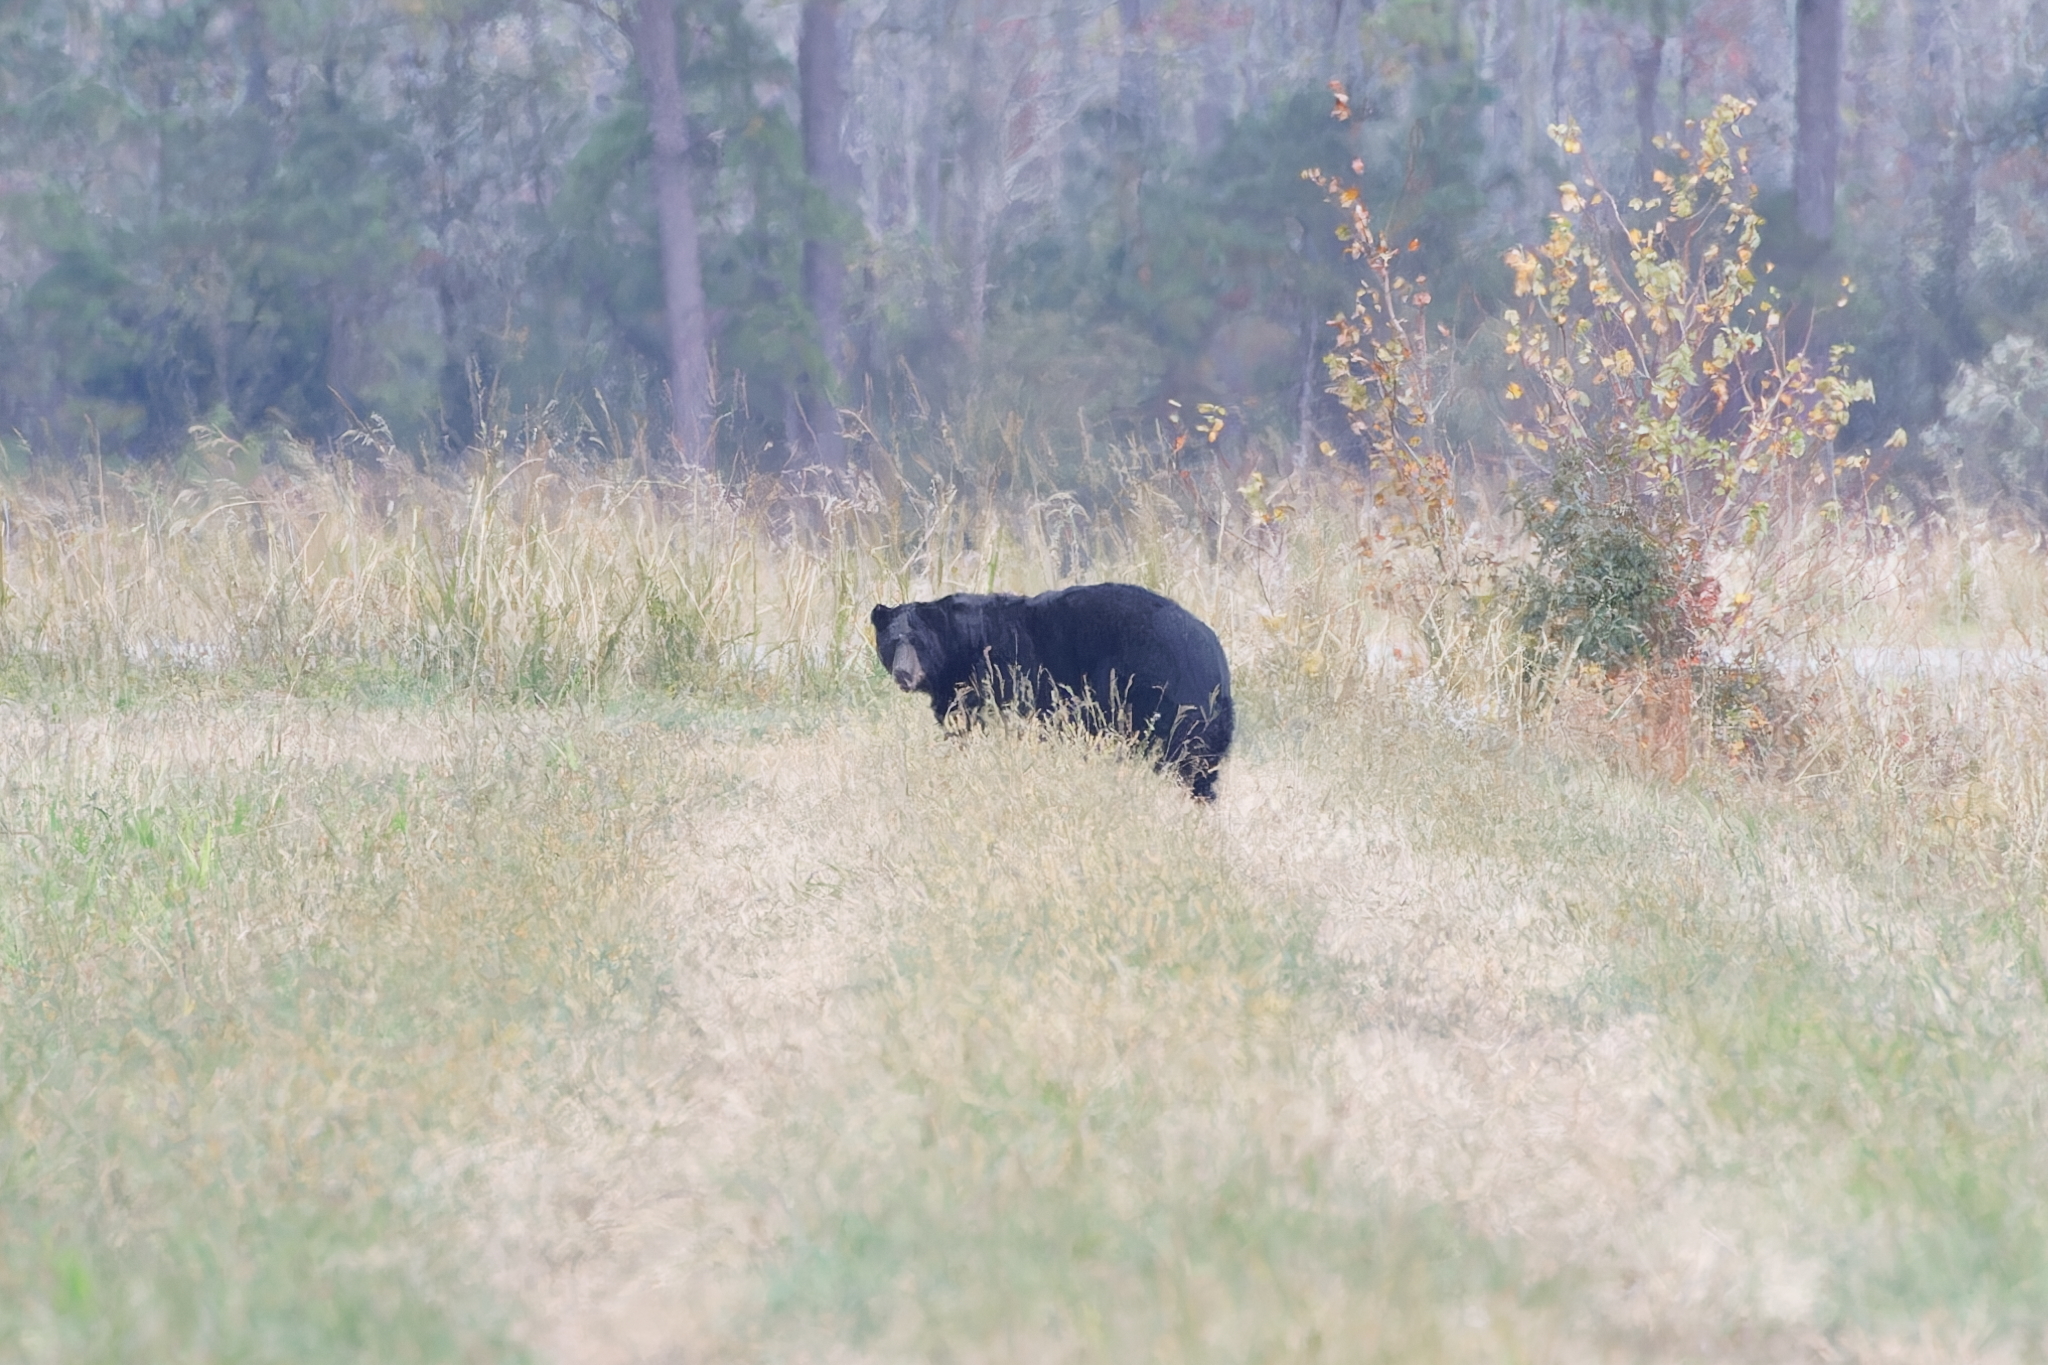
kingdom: Animalia
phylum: Chordata
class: Mammalia
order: Carnivora
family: Ursidae
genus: Ursus
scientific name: Ursus americanus
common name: American black bear
